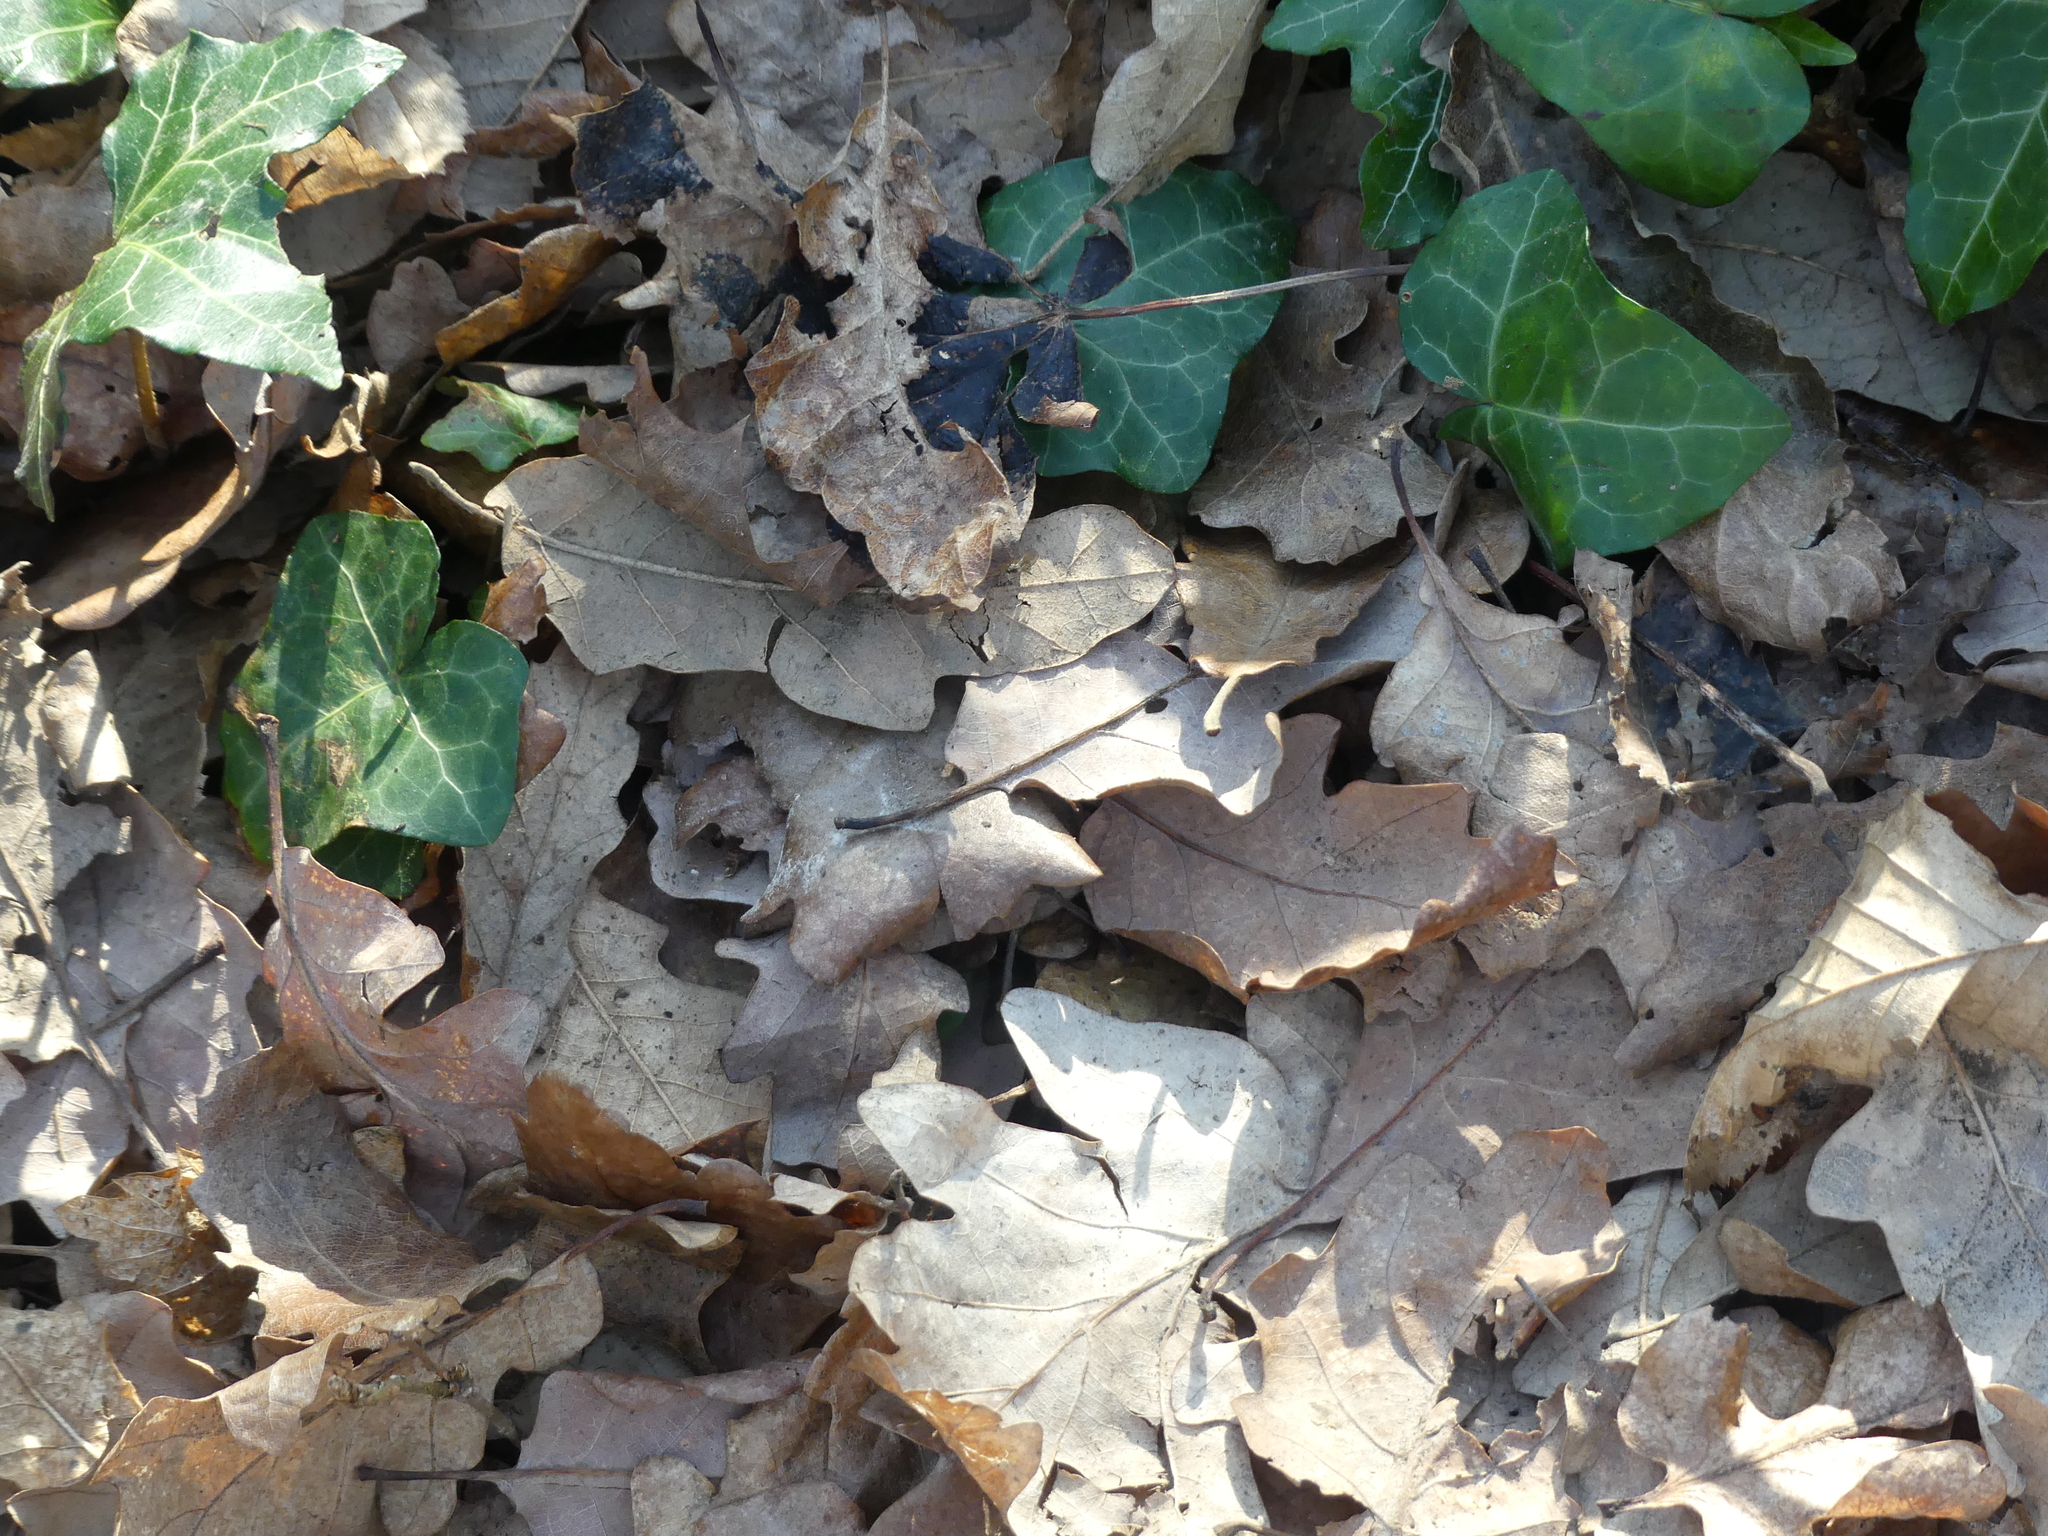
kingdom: Plantae
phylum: Tracheophyta
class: Magnoliopsida
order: Apiales
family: Araliaceae
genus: Hedera
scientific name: Hedera helix
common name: Ivy
